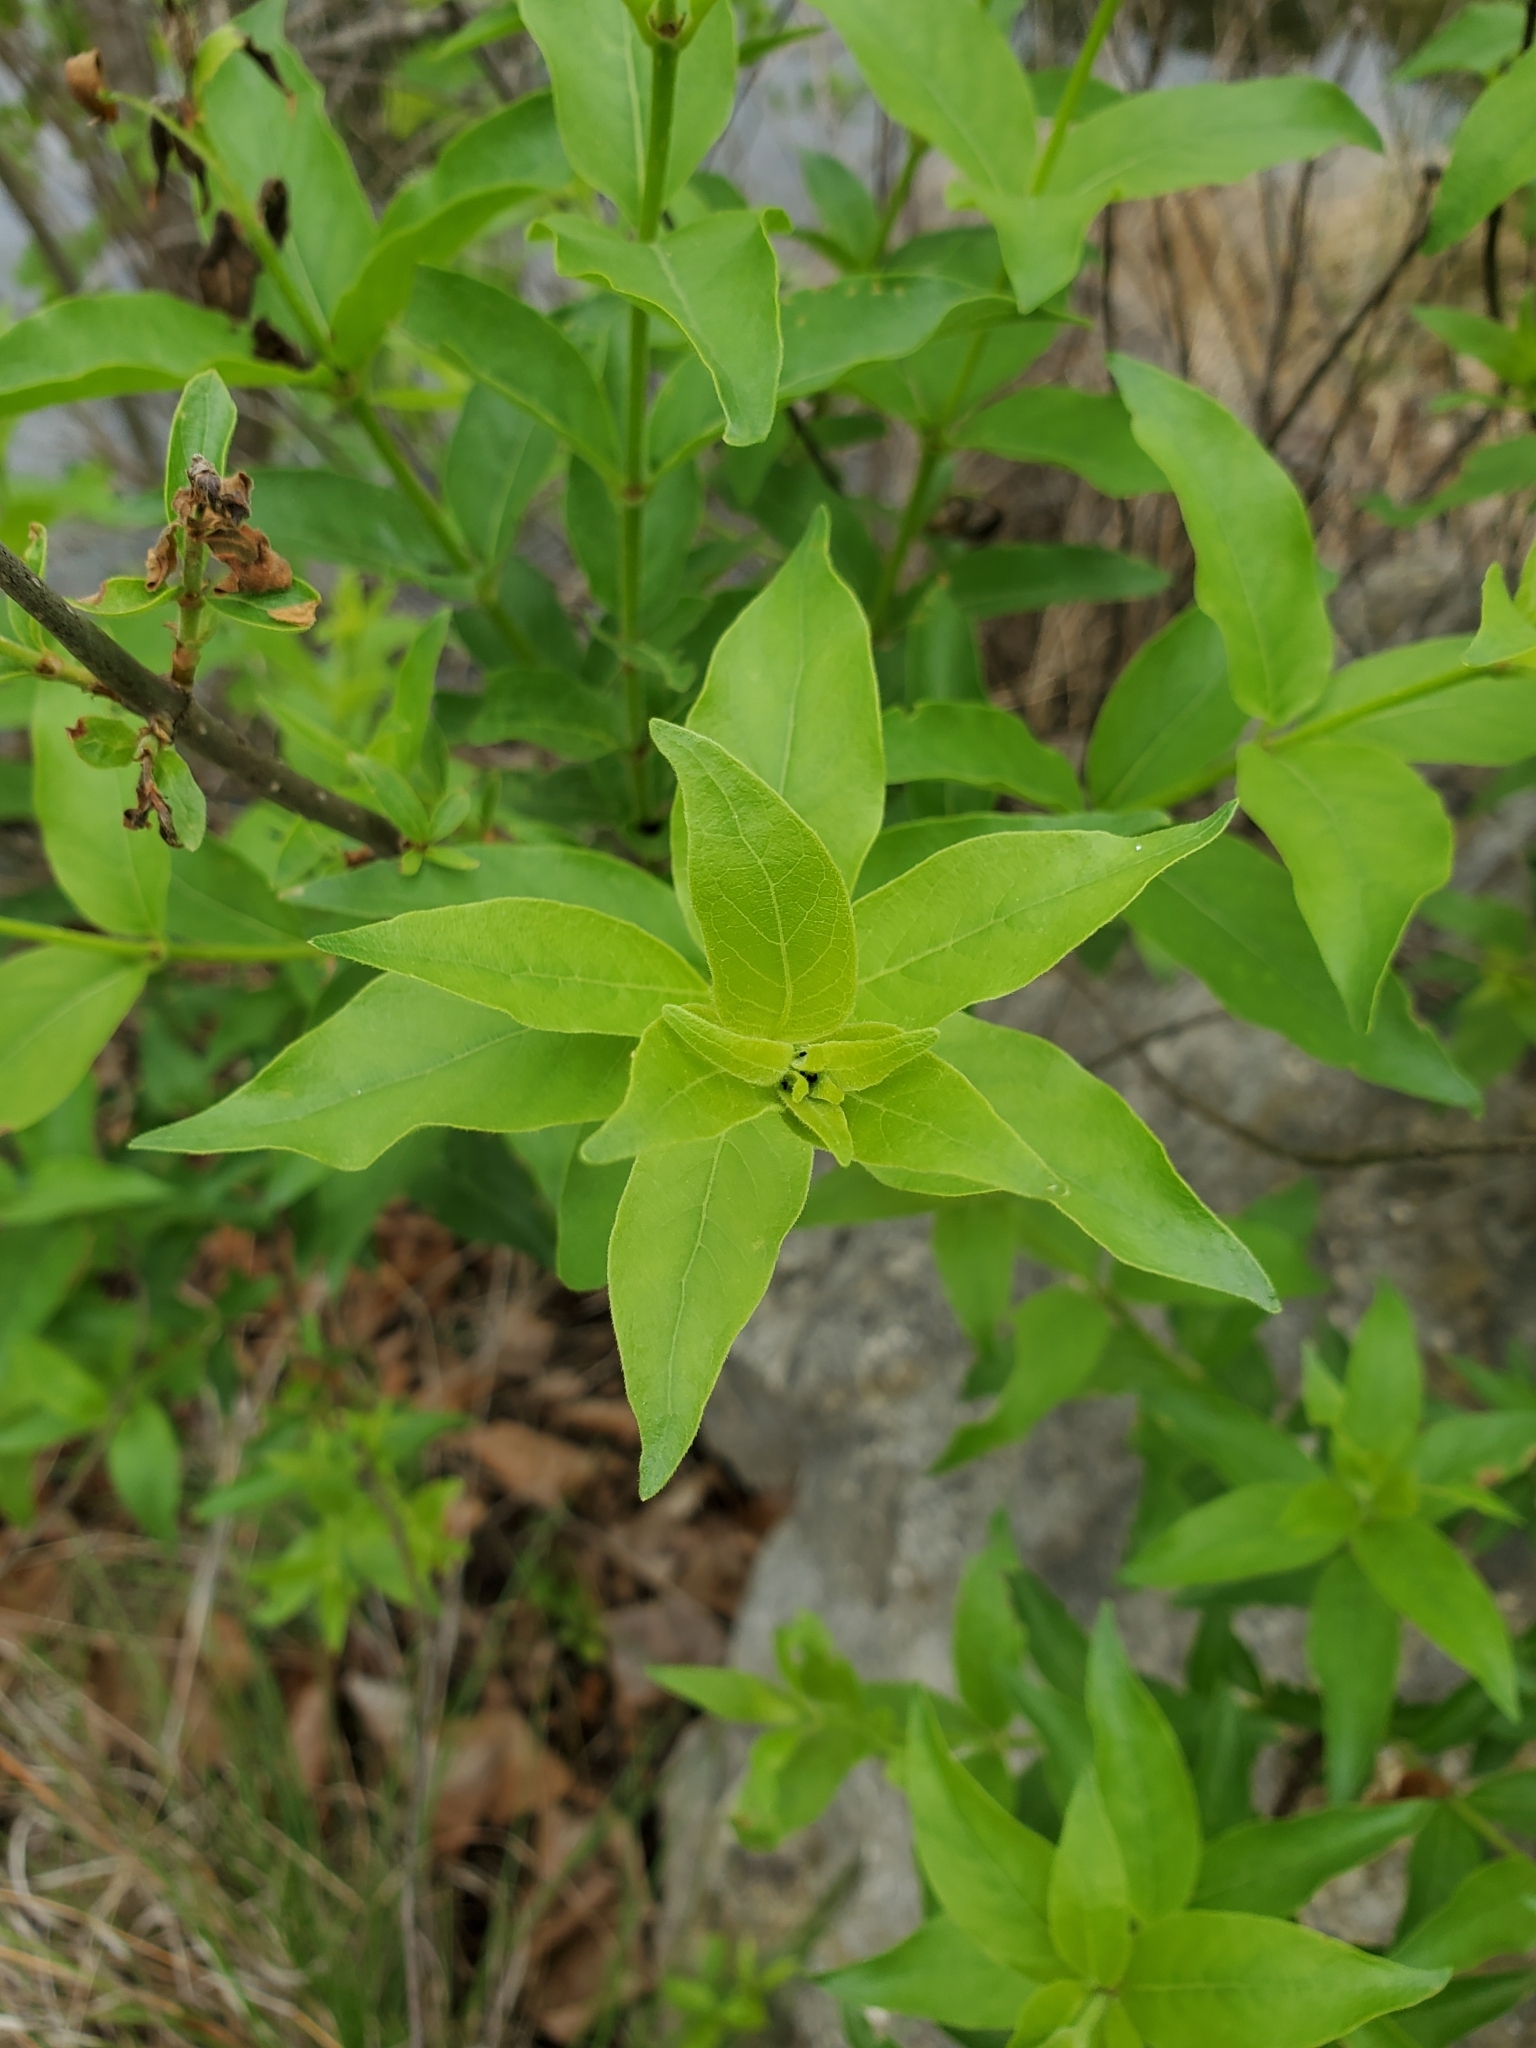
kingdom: Plantae
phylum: Tracheophyta
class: Magnoliopsida
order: Gentianales
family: Rubiaceae
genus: Cephalanthus
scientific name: Cephalanthus occidentalis
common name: Button-willow
